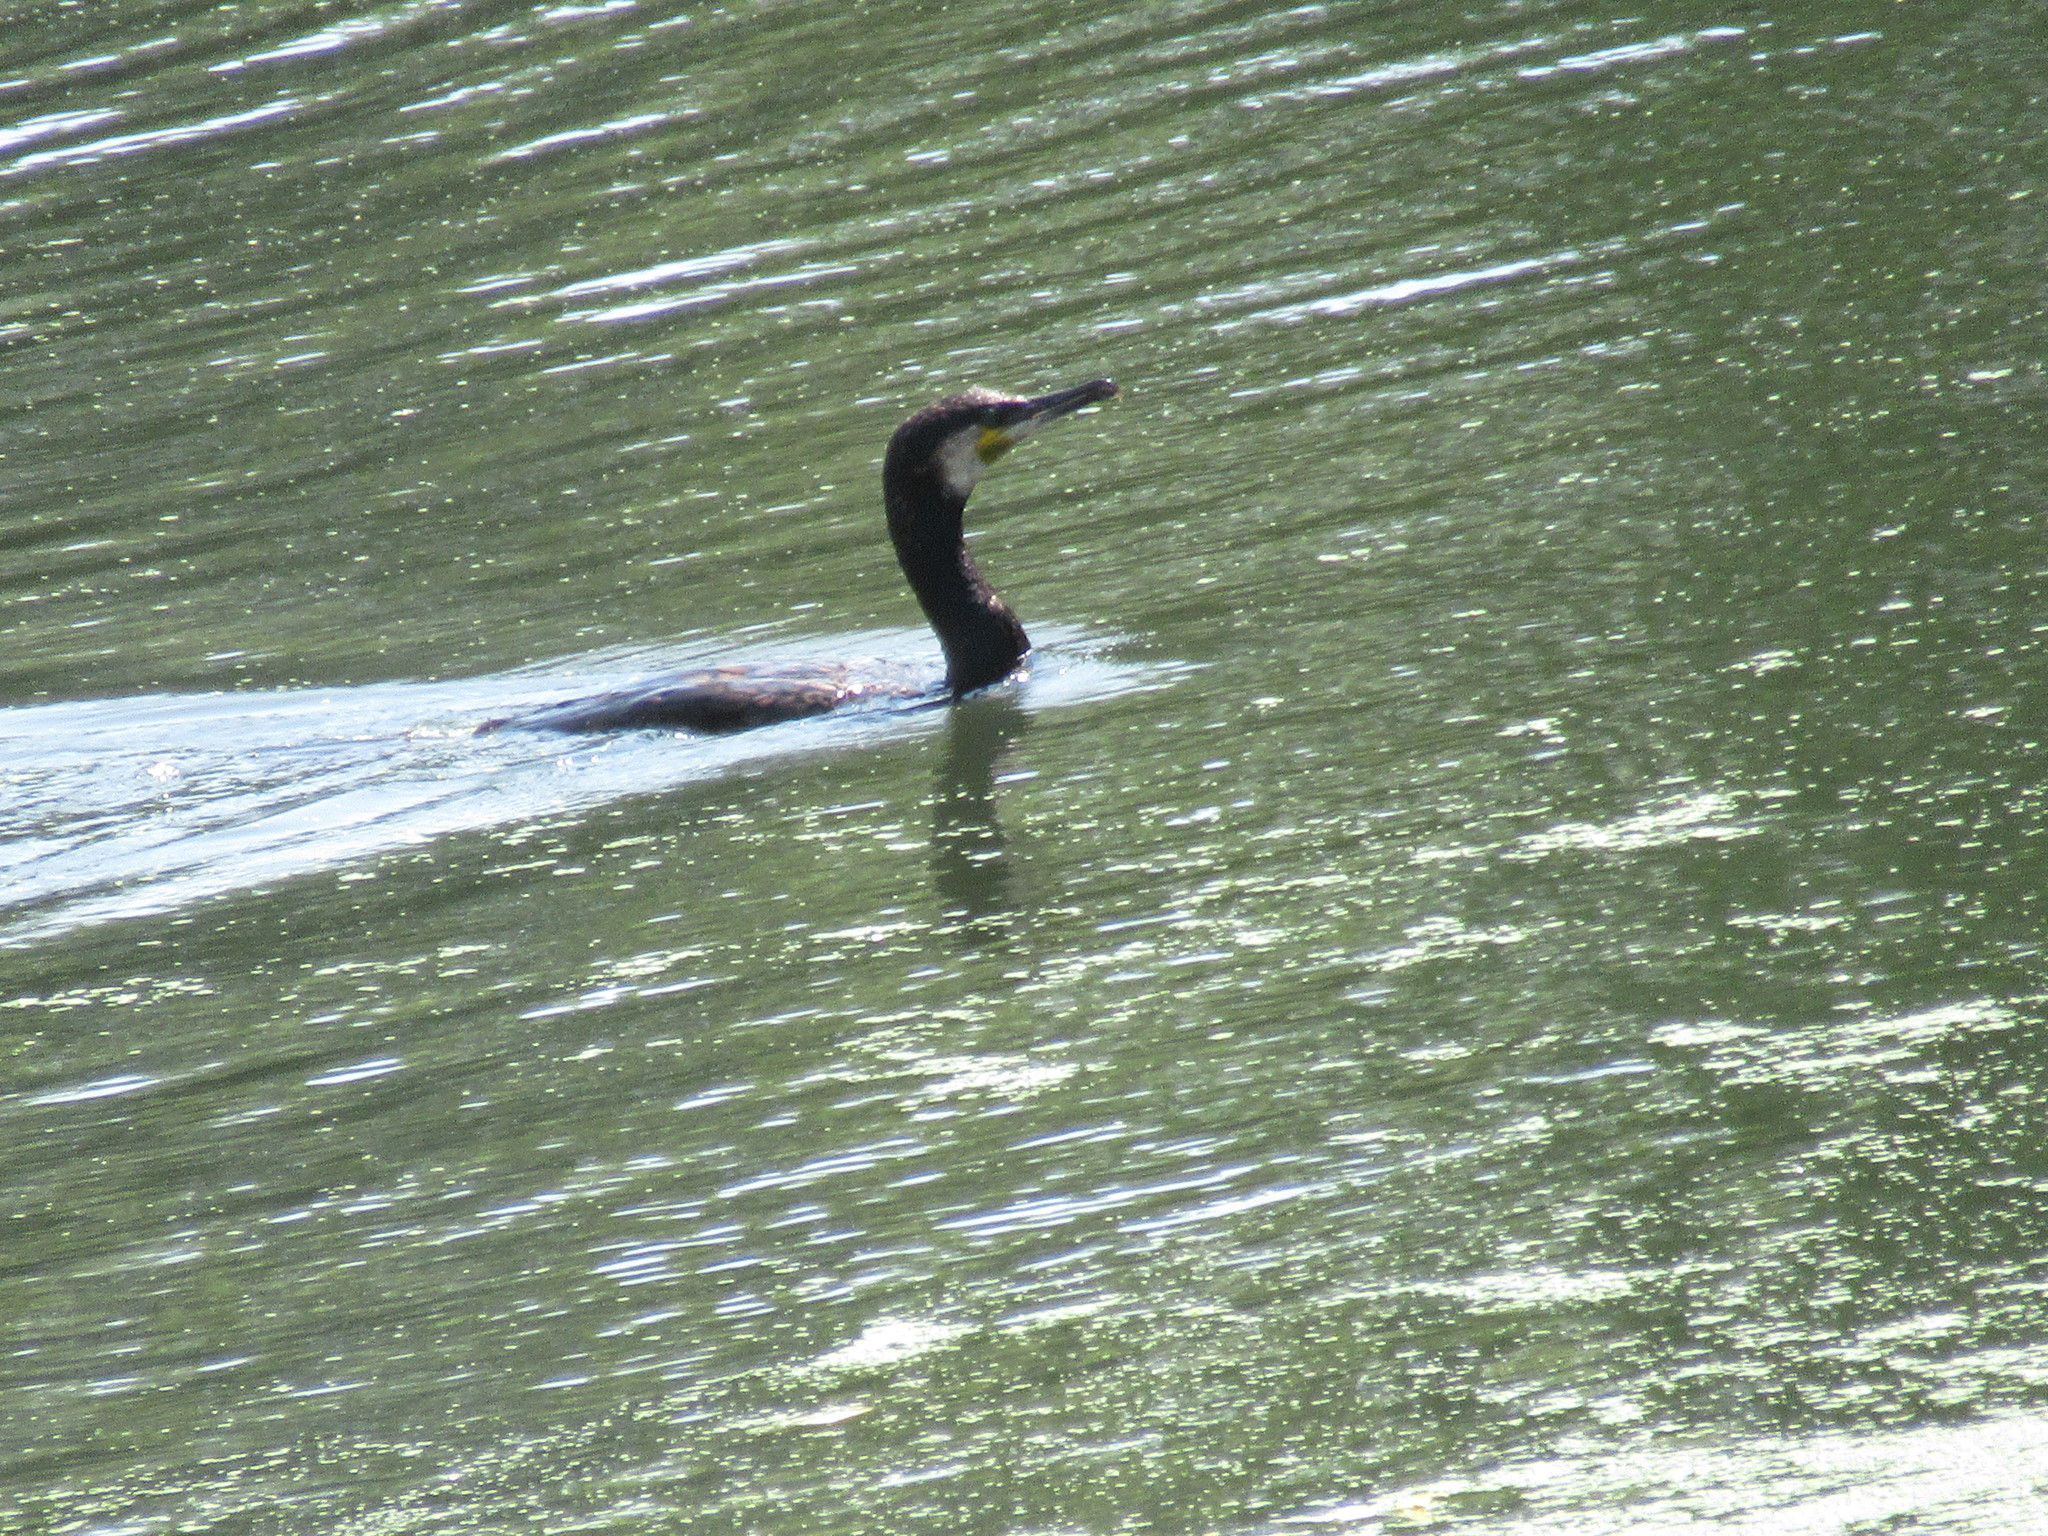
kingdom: Animalia
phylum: Chordata
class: Aves
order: Suliformes
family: Phalacrocoracidae
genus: Phalacrocorax
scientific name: Phalacrocorax carbo
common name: Great cormorant
